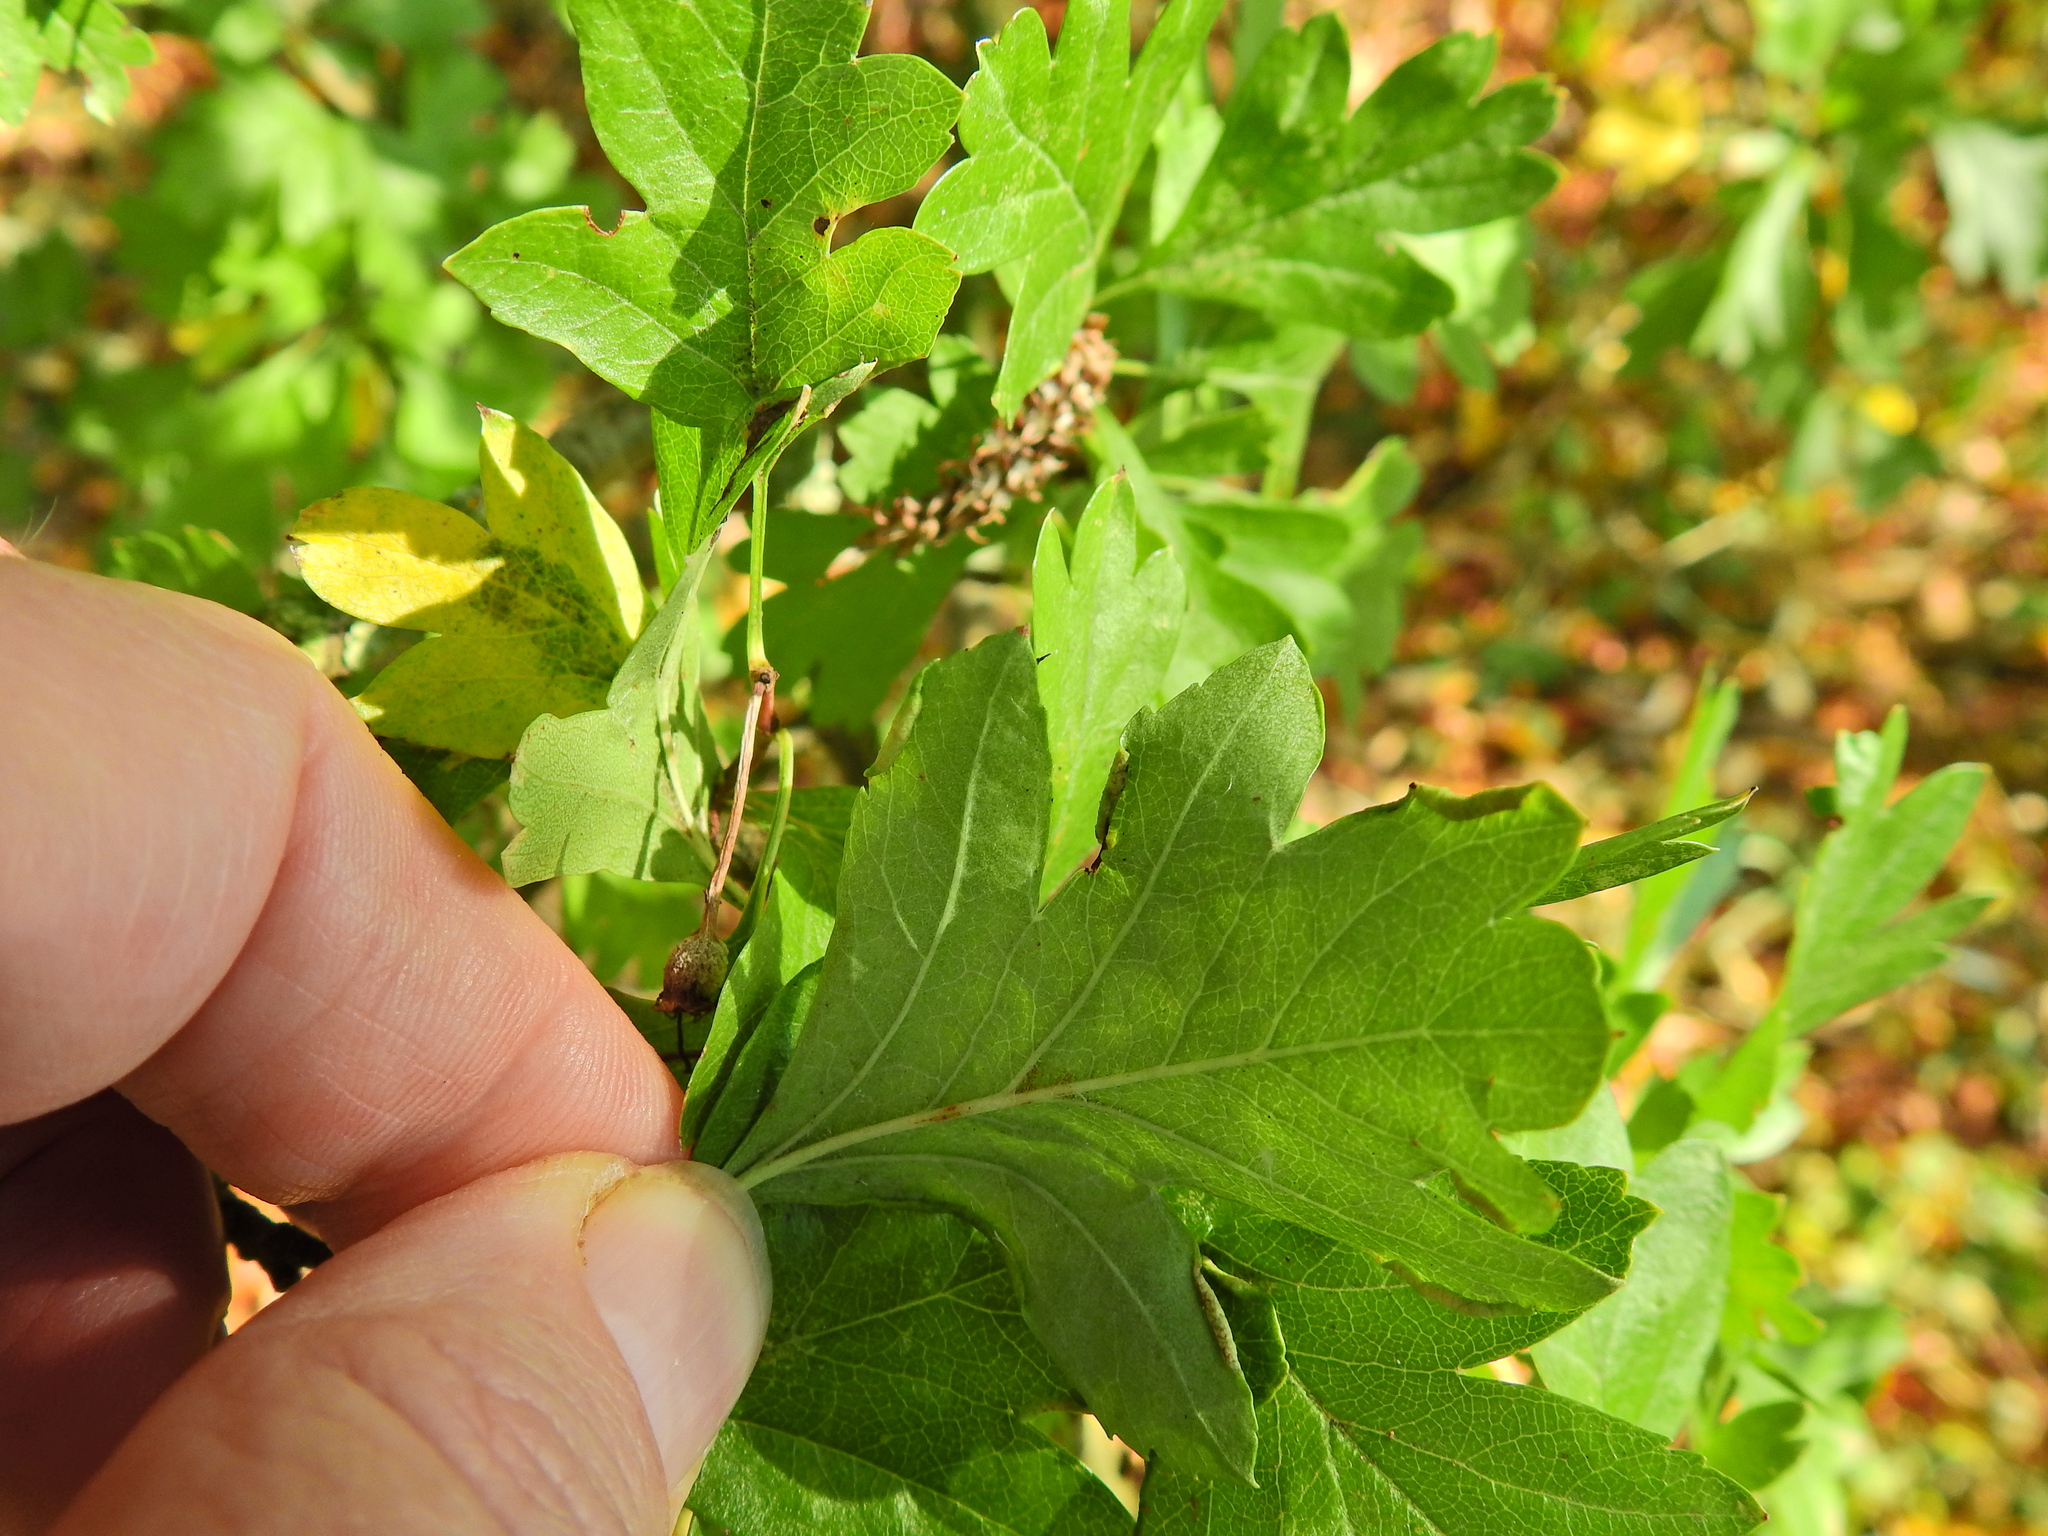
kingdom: Animalia
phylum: Arthropoda
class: Arachnida
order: Trombidiformes
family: Eriophyidae
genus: Phyllocoptes
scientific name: Phyllocoptes goniothorax
